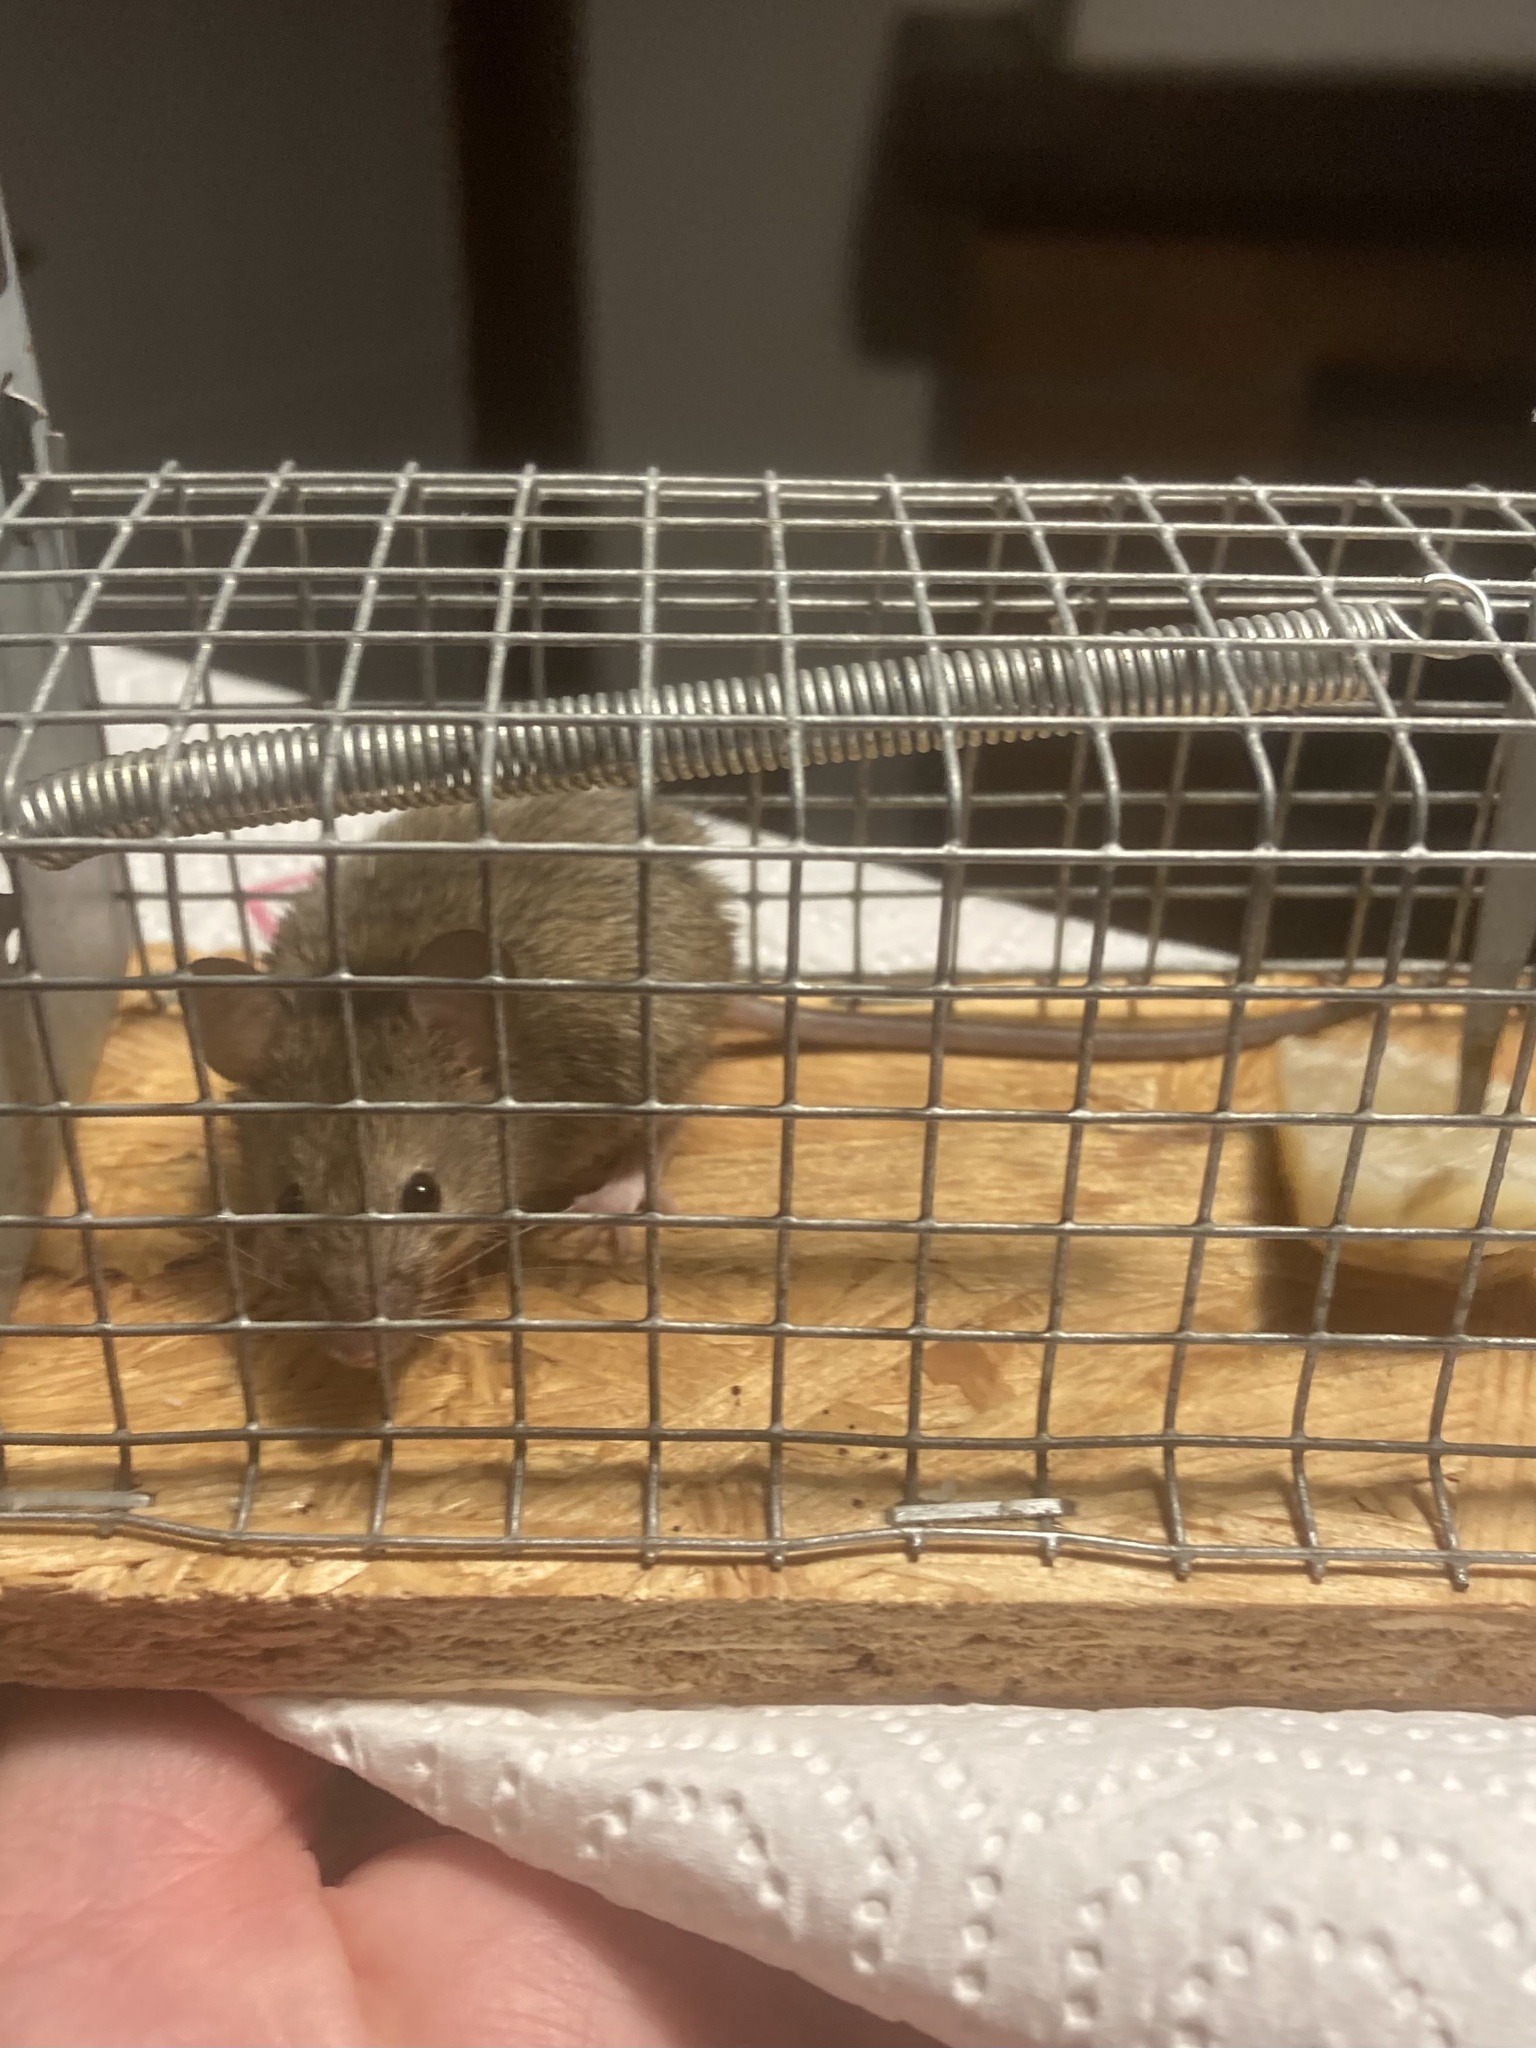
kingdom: Animalia
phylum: Chordata
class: Mammalia
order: Rodentia
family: Muridae
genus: Mus
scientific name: Mus musculus
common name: House mouse
